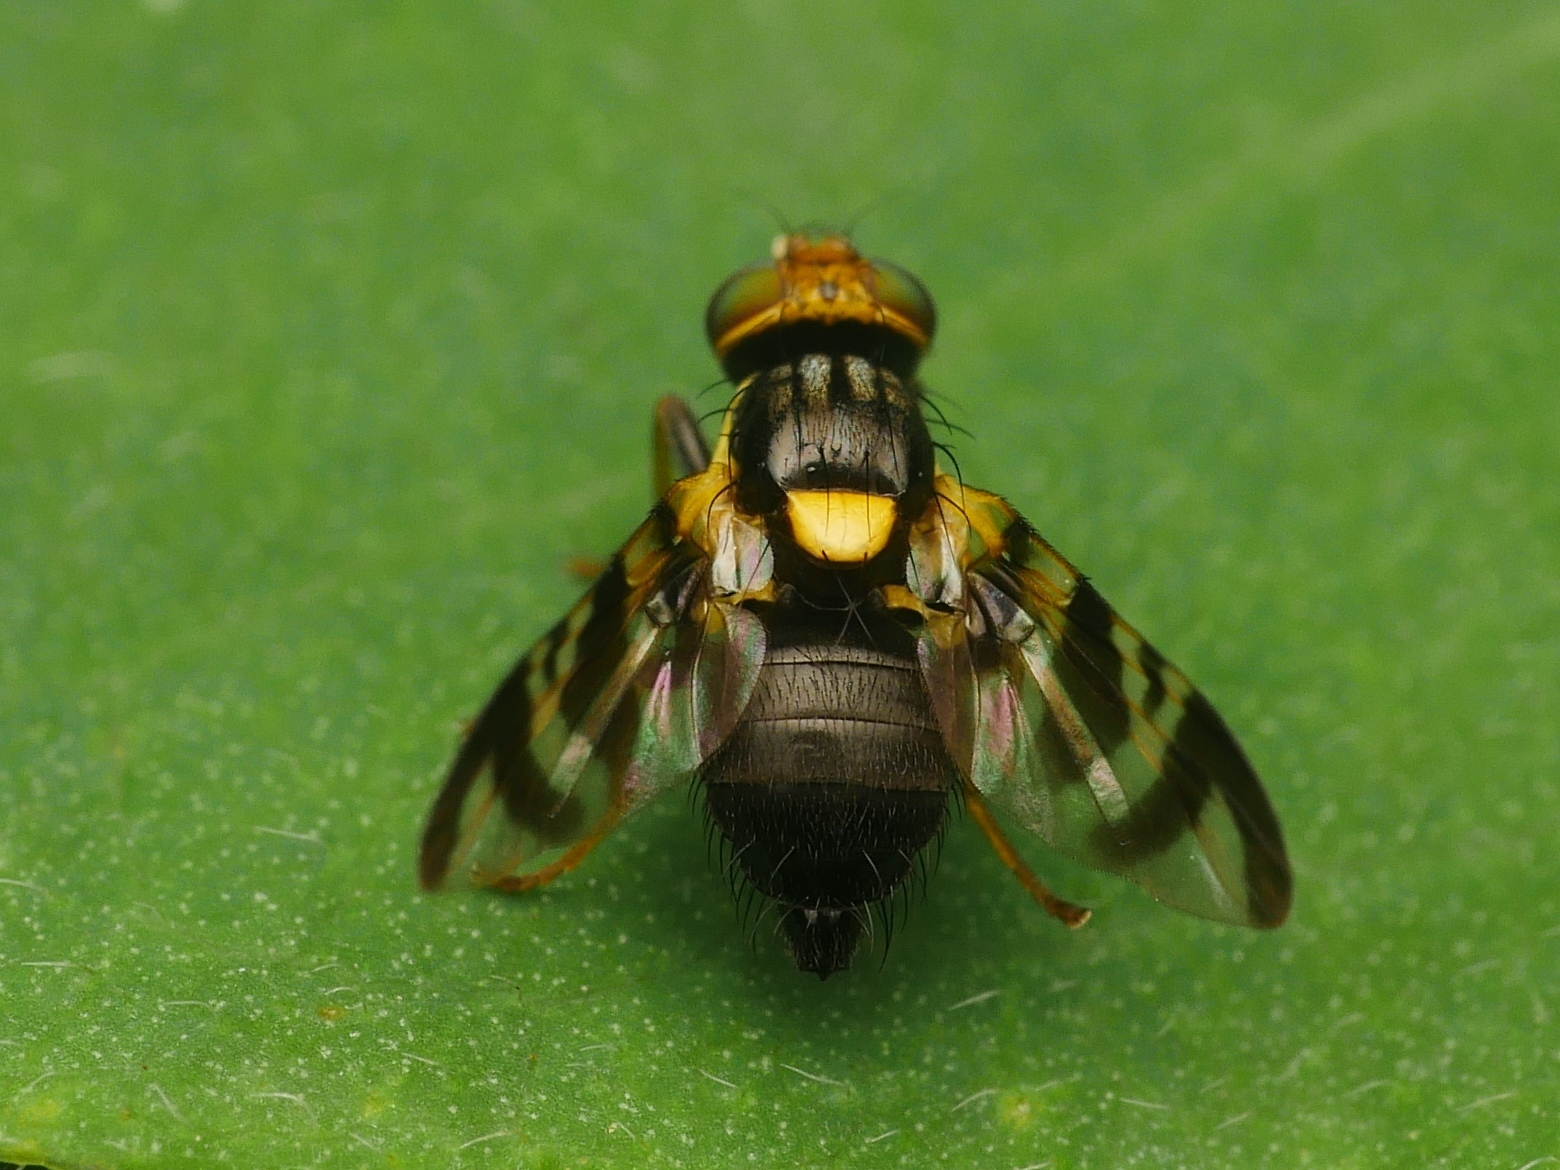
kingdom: Animalia
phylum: Arthropoda
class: Insecta
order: Diptera
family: Tephritidae
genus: Rhagoletis
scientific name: Rhagoletis cerasi
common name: European cherry fruit fly
